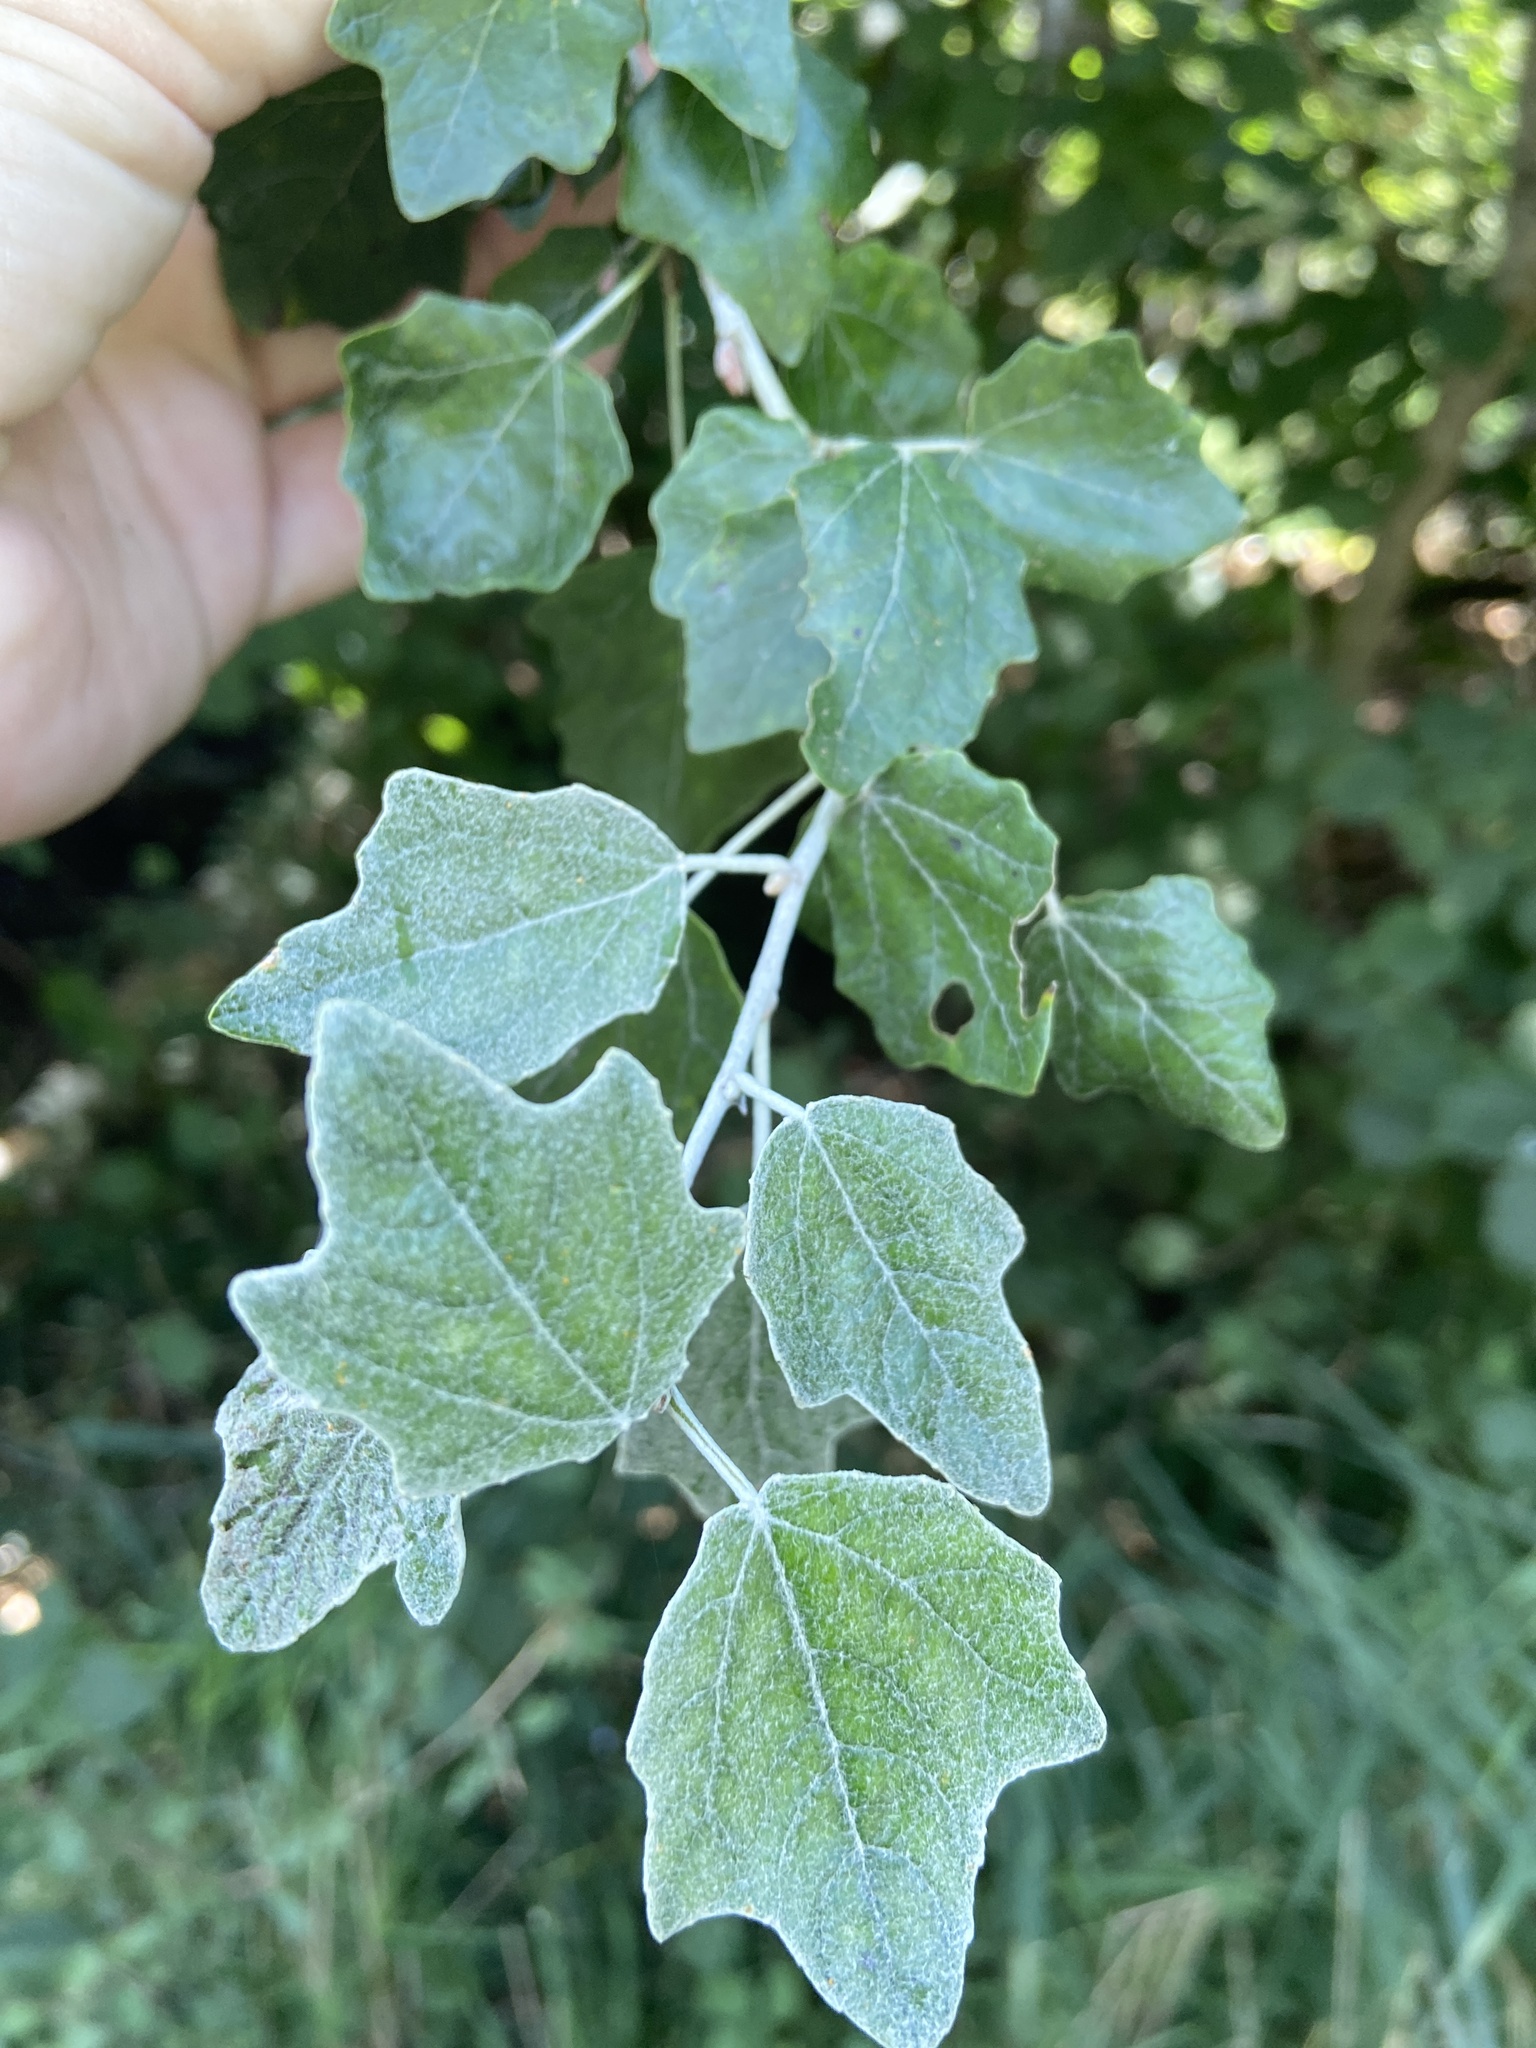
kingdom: Plantae
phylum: Tracheophyta
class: Magnoliopsida
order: Malpighiales
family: Salicaceae
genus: Populus
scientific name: Populus alba
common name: White poplar
